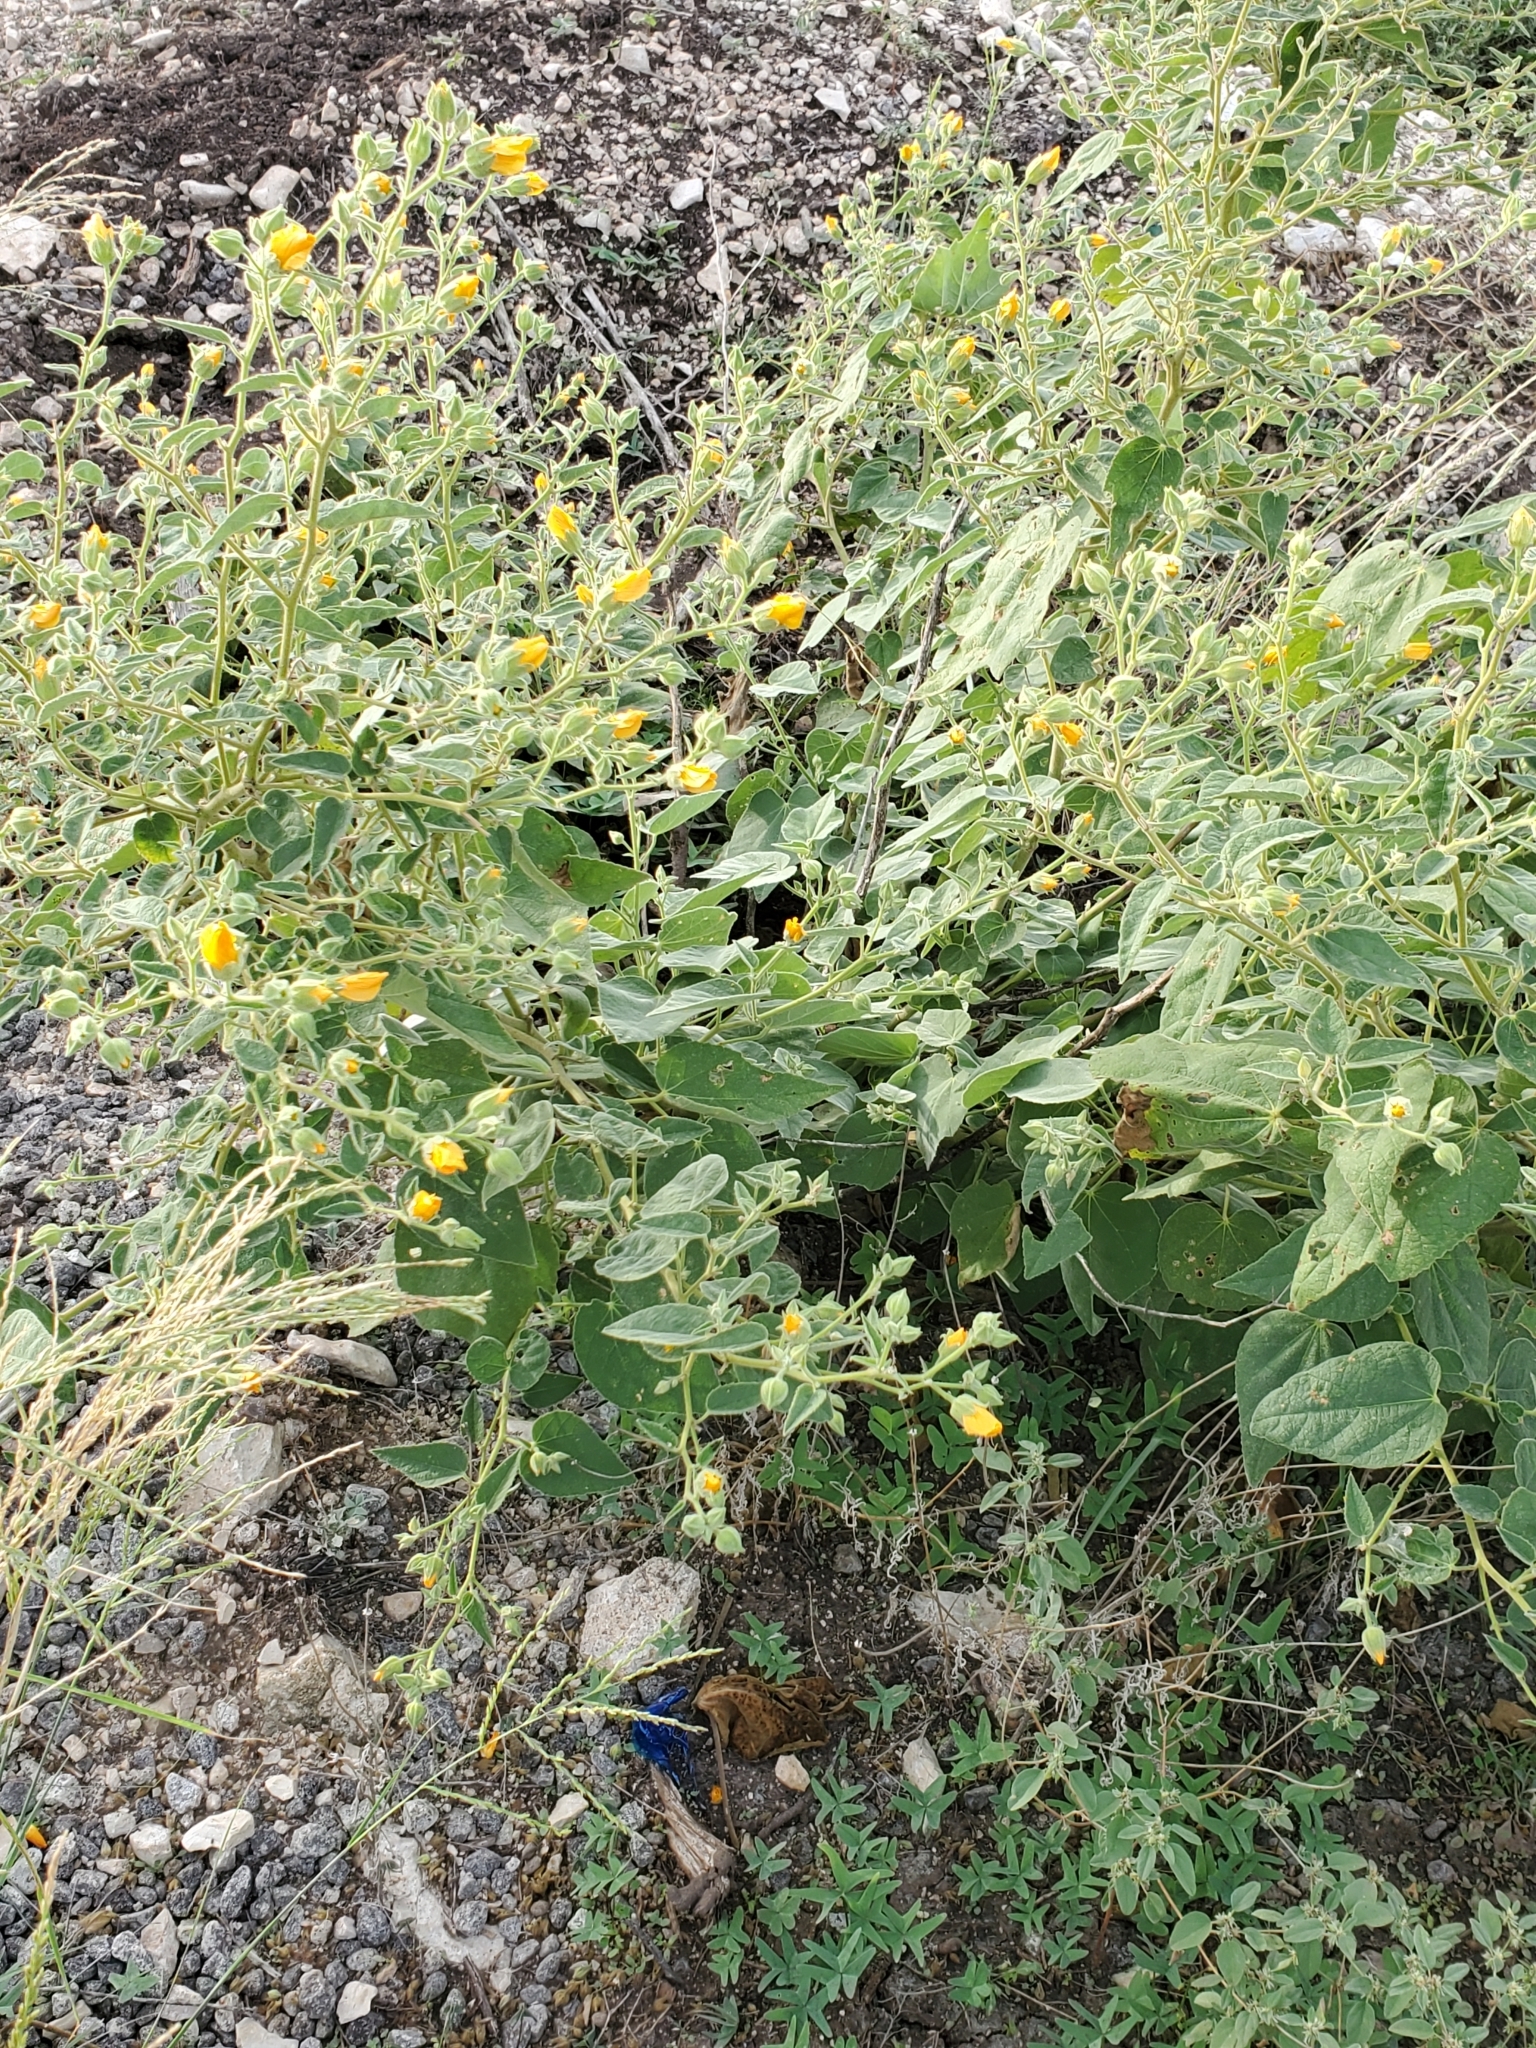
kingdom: Plantae
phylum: Tracheophyta
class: Magnoliopsida
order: Malvales
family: Malvaceae
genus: Allowissadula
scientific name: Allowissadula holosericea
